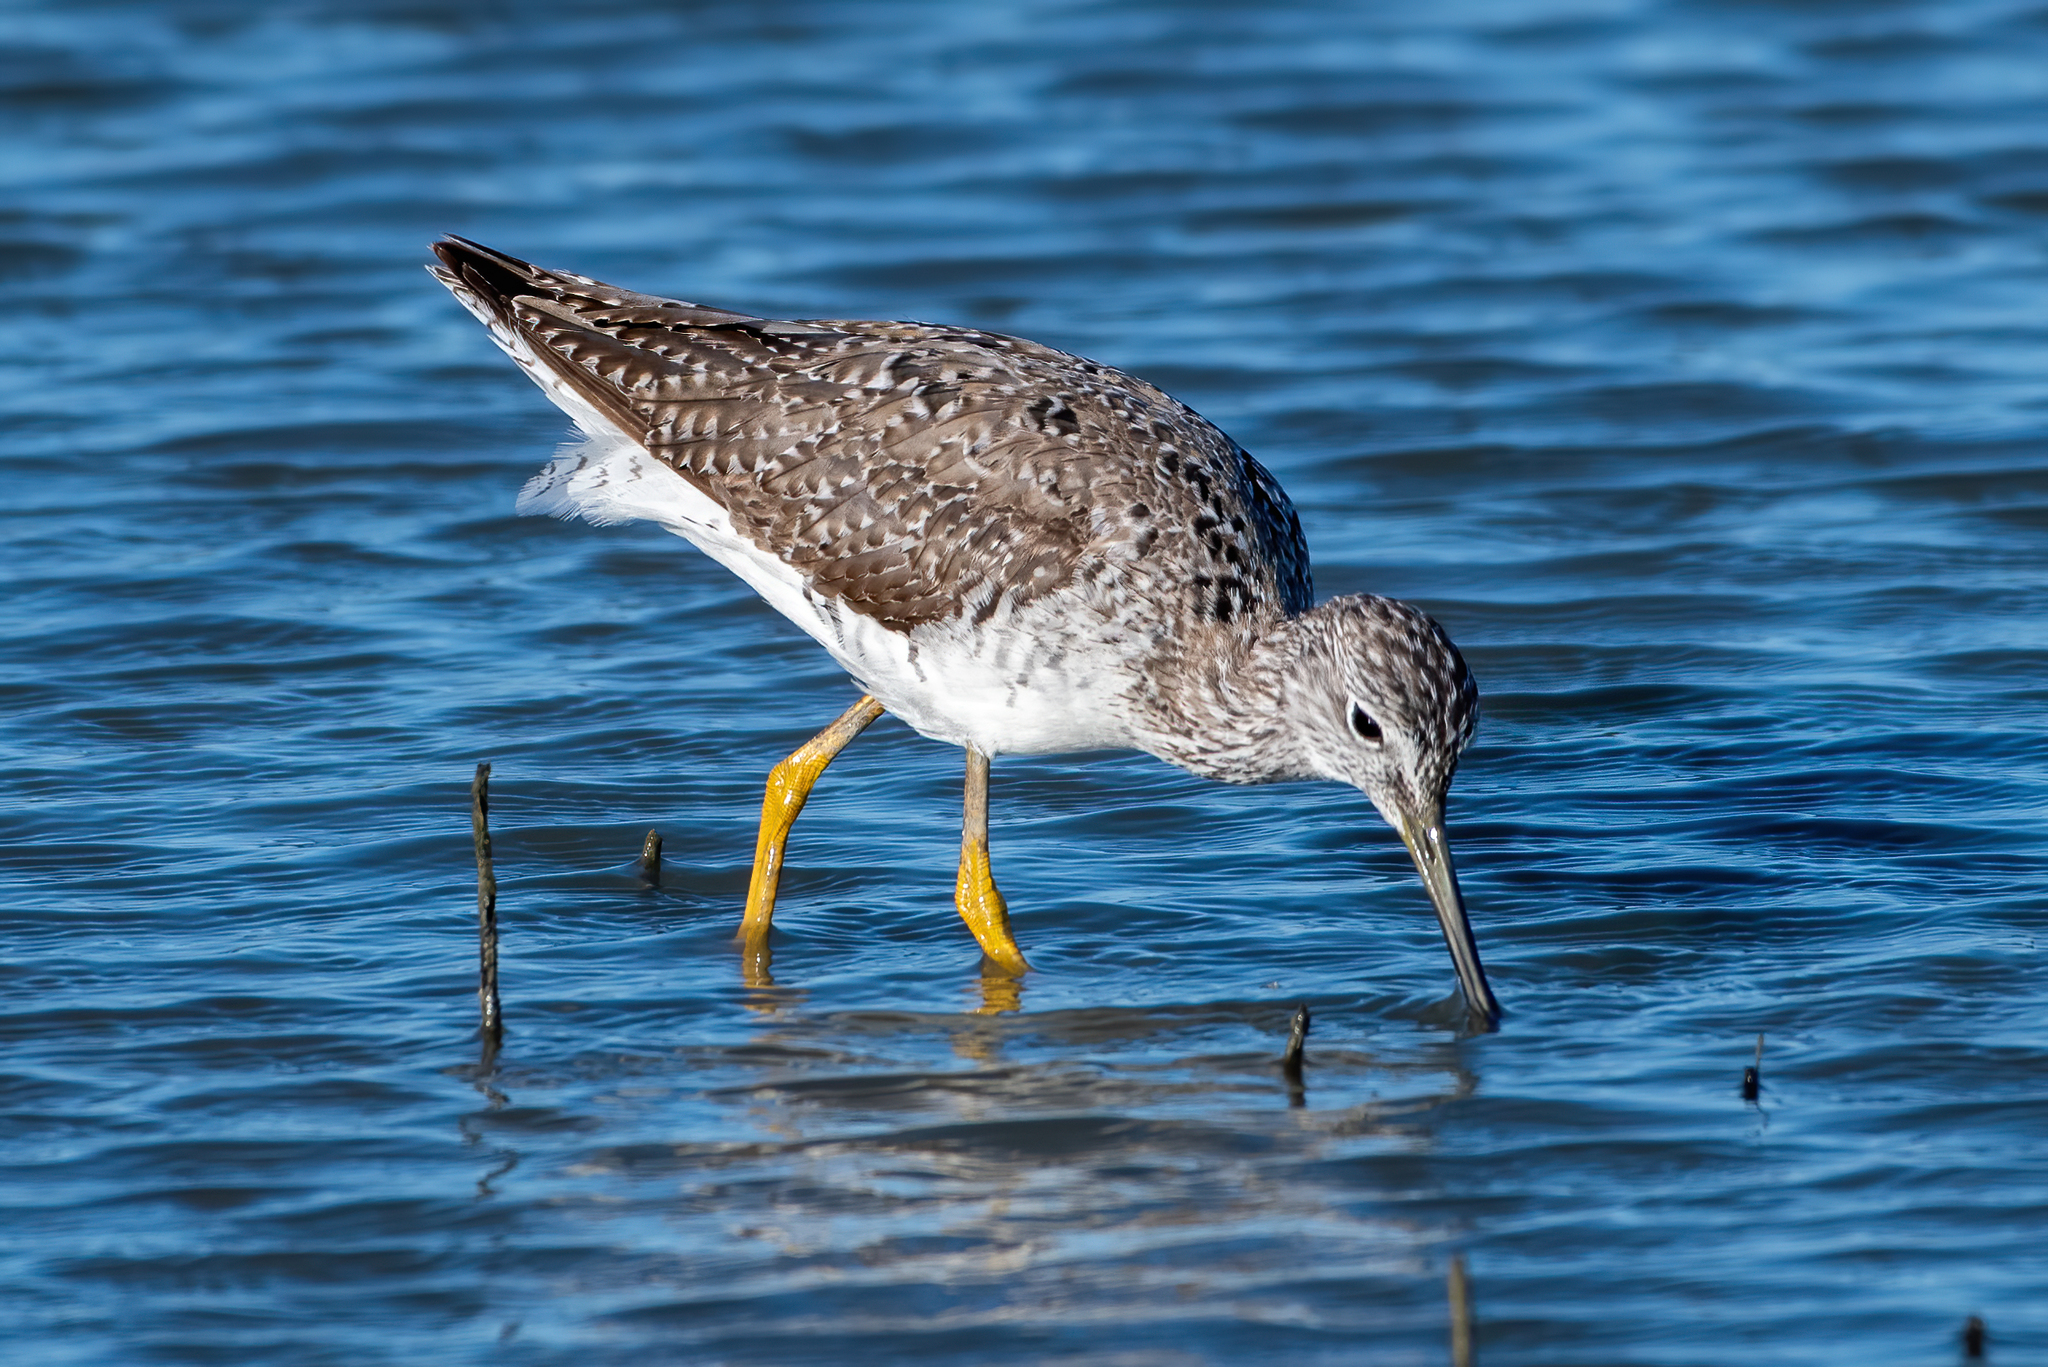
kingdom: Animalia
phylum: Chordata
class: Aves
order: Charadriiformes
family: Scolopacidae
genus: Tringa
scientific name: Tringa melanoleuca
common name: Greater yellowlegs
